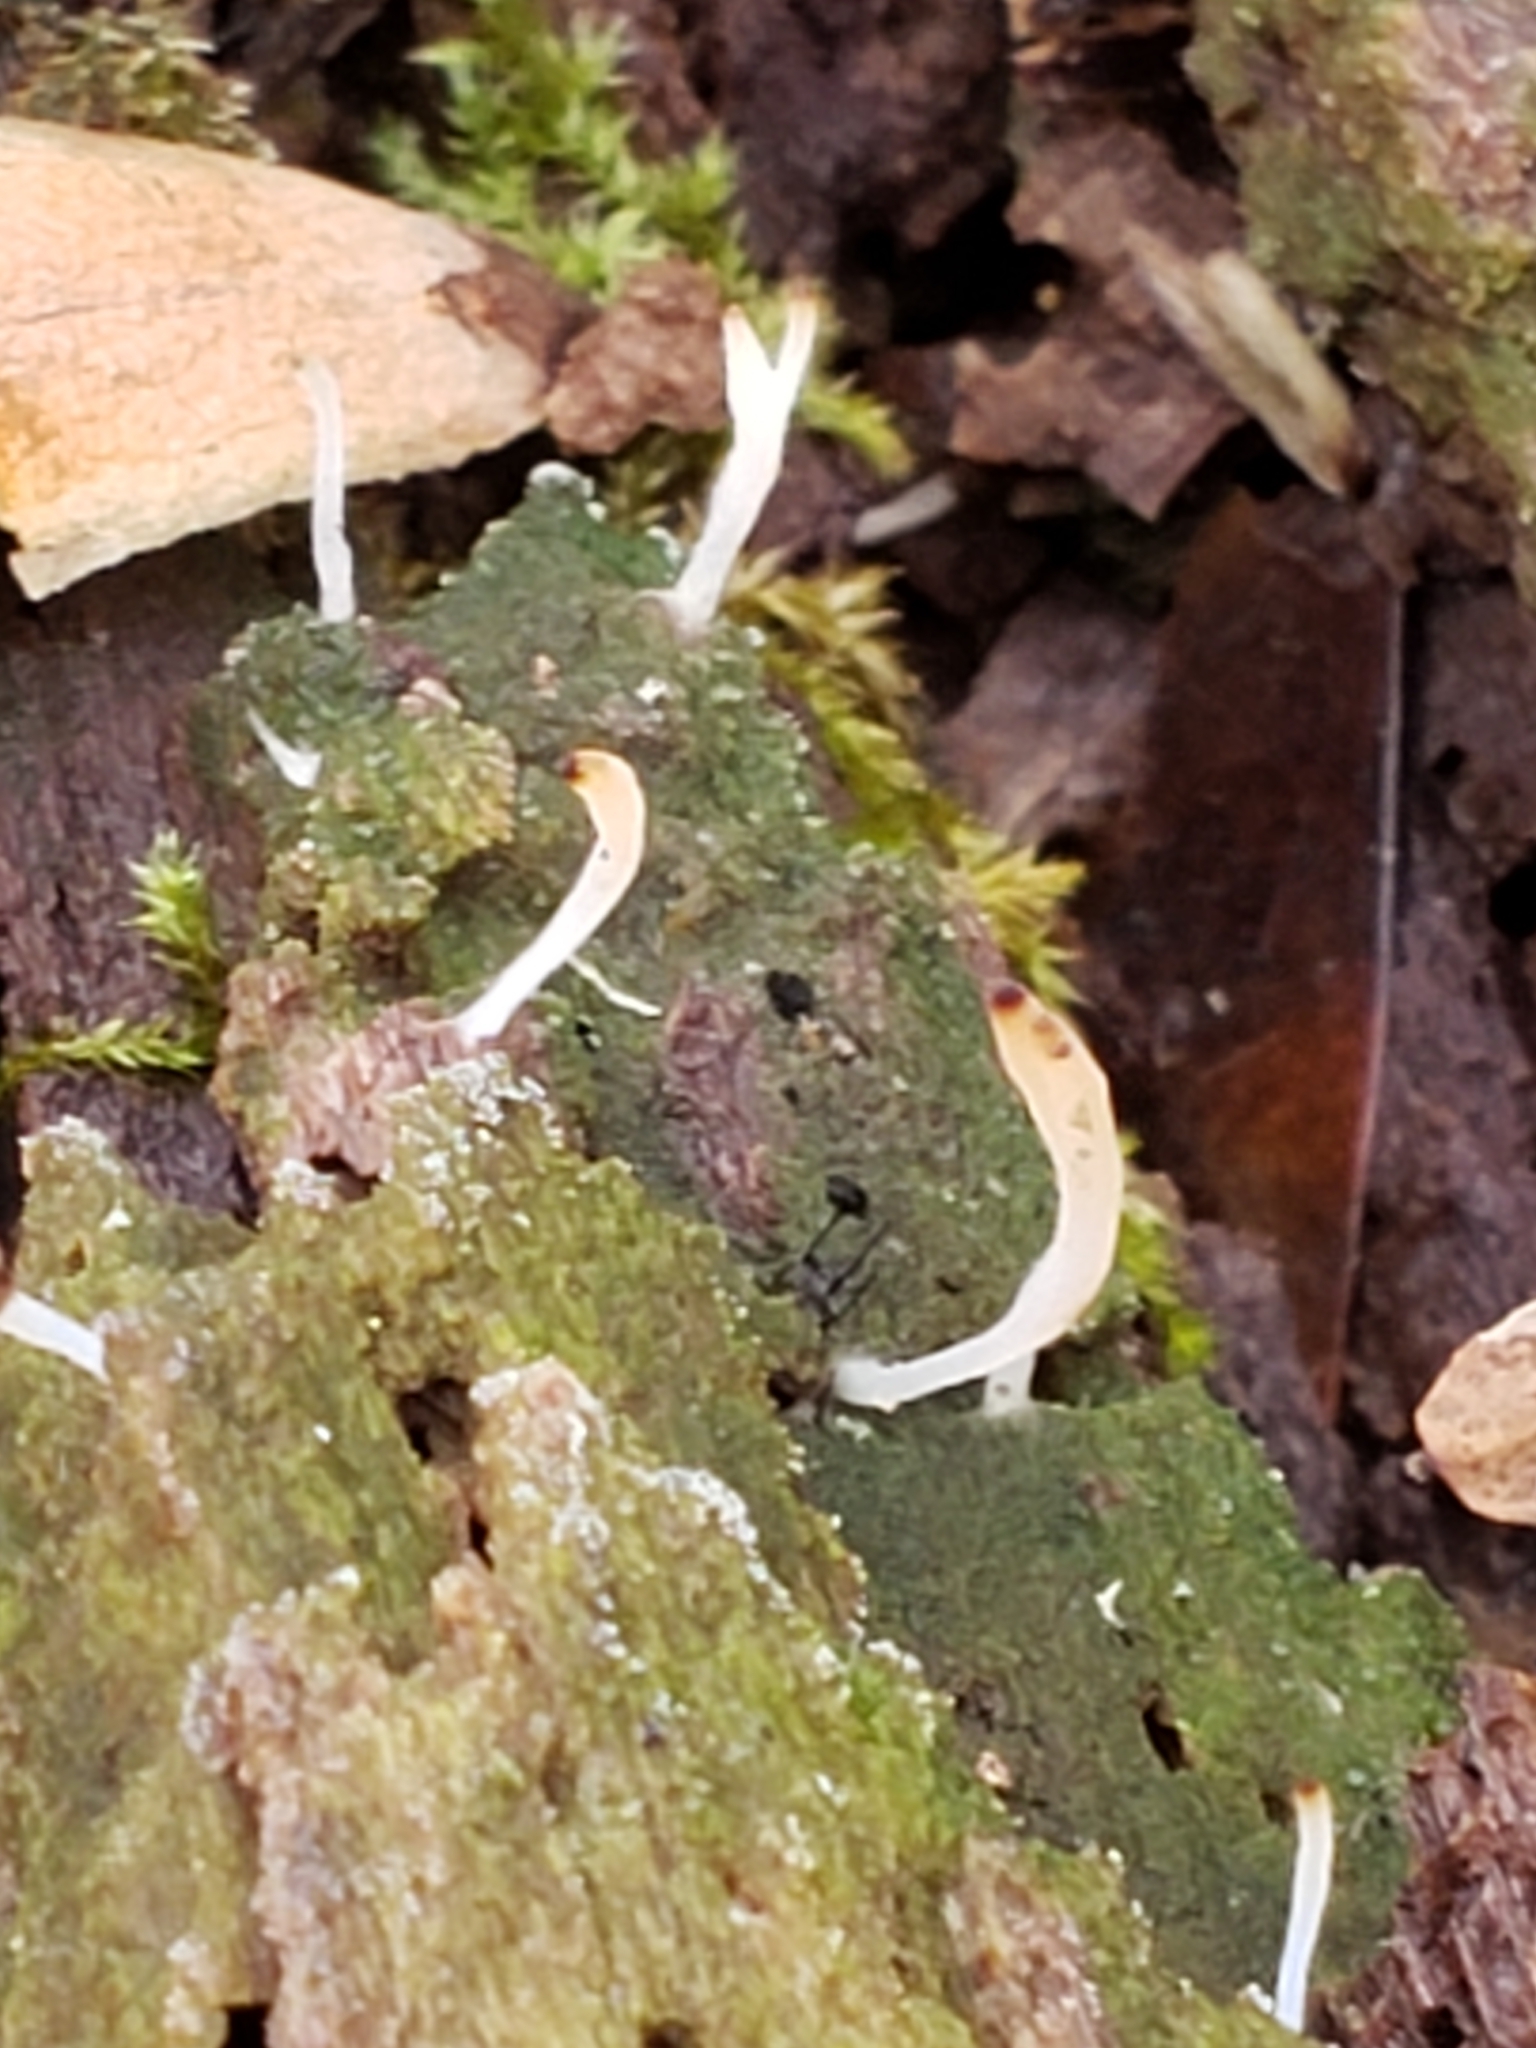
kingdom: Fungi
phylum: Basidiomycota
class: Agaricomycetes
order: Cantharellales
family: Hydnaceae
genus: Multiclavula
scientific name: Multiclavula mucida
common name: White green-algae coral
